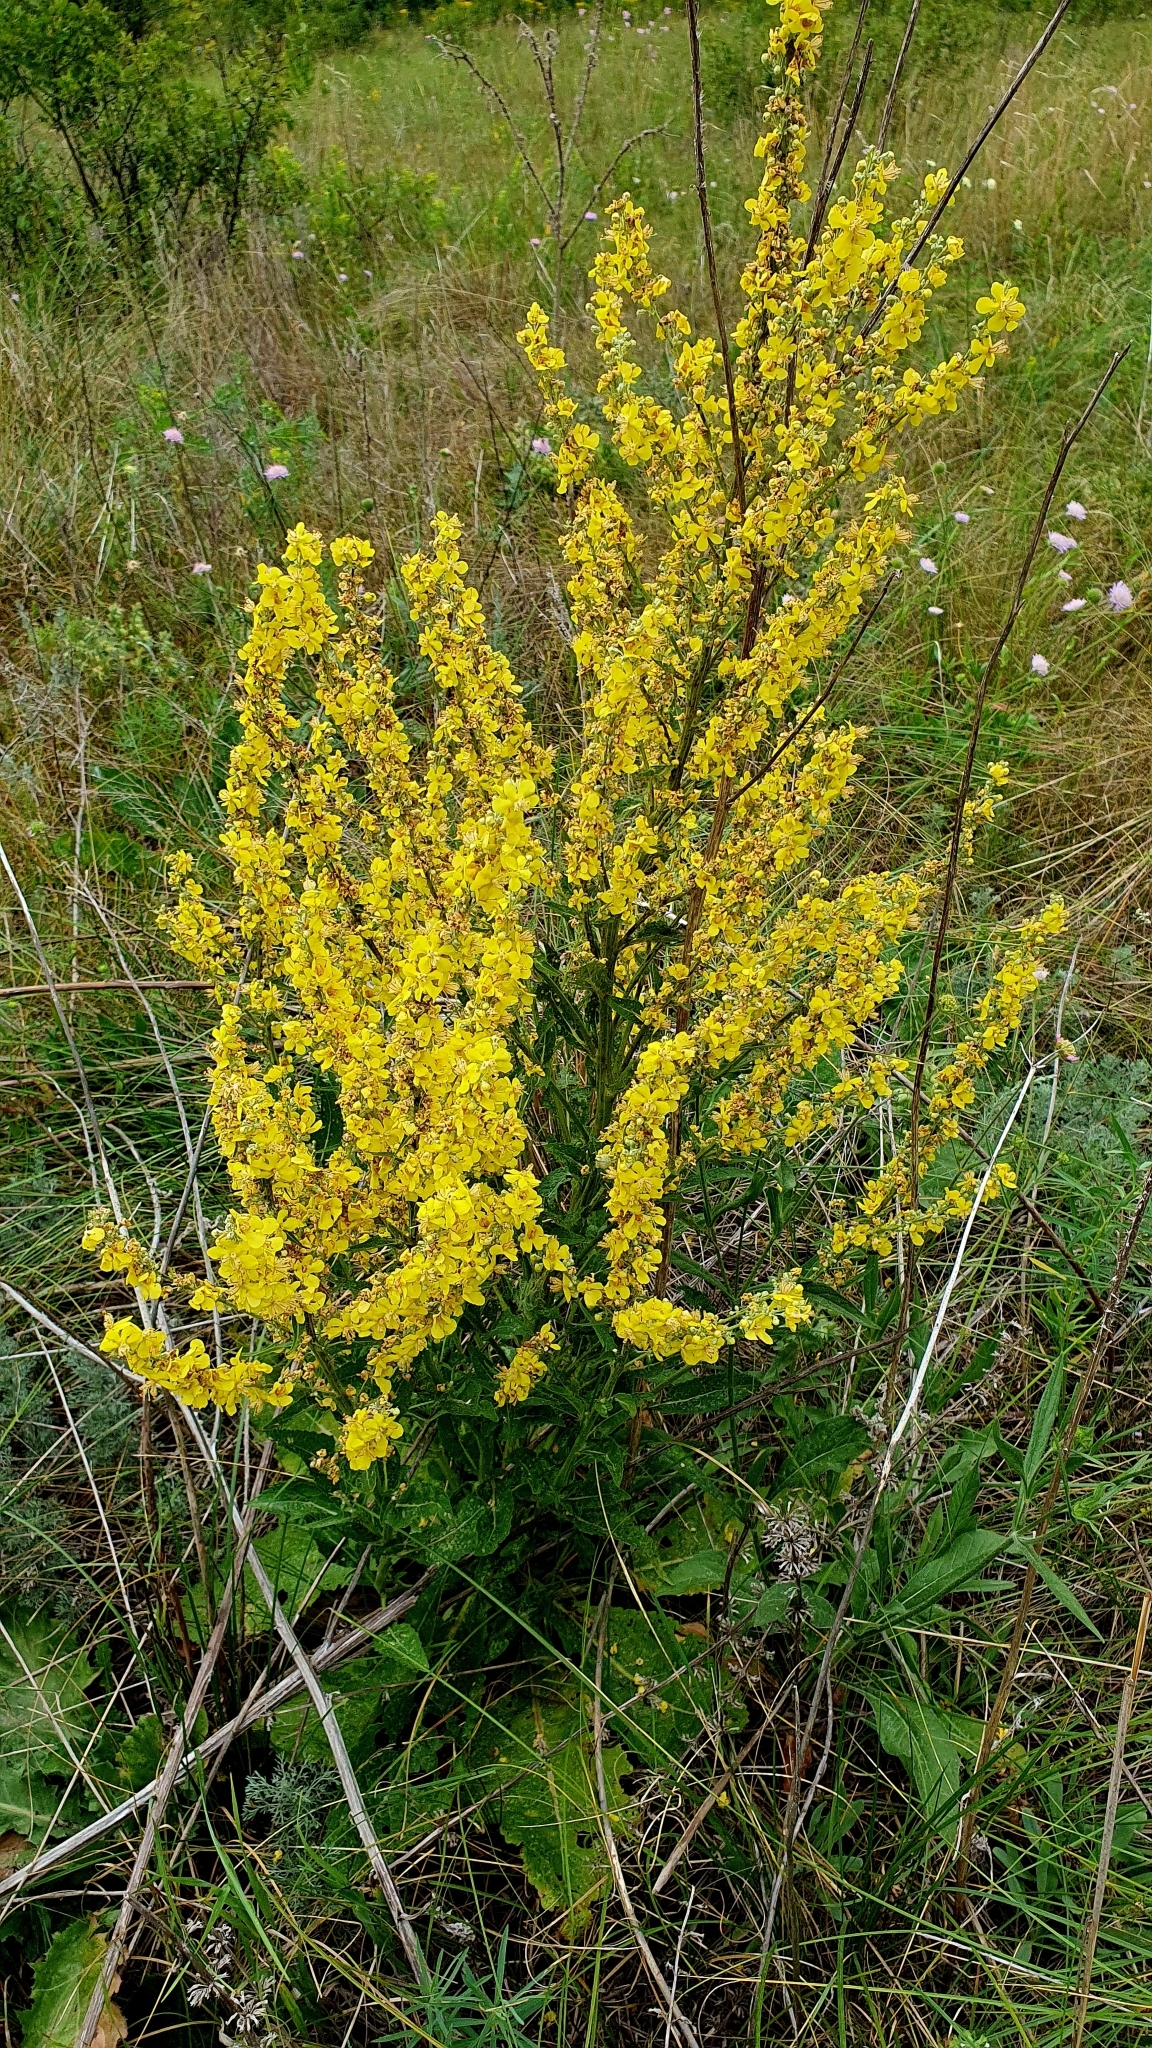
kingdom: Plantae
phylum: Tracheophyta
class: Magnoliopsida
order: Lamiales
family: Scrophulariaceae
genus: Verbascum
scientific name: Verbascum lychnitis
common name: White mullein
